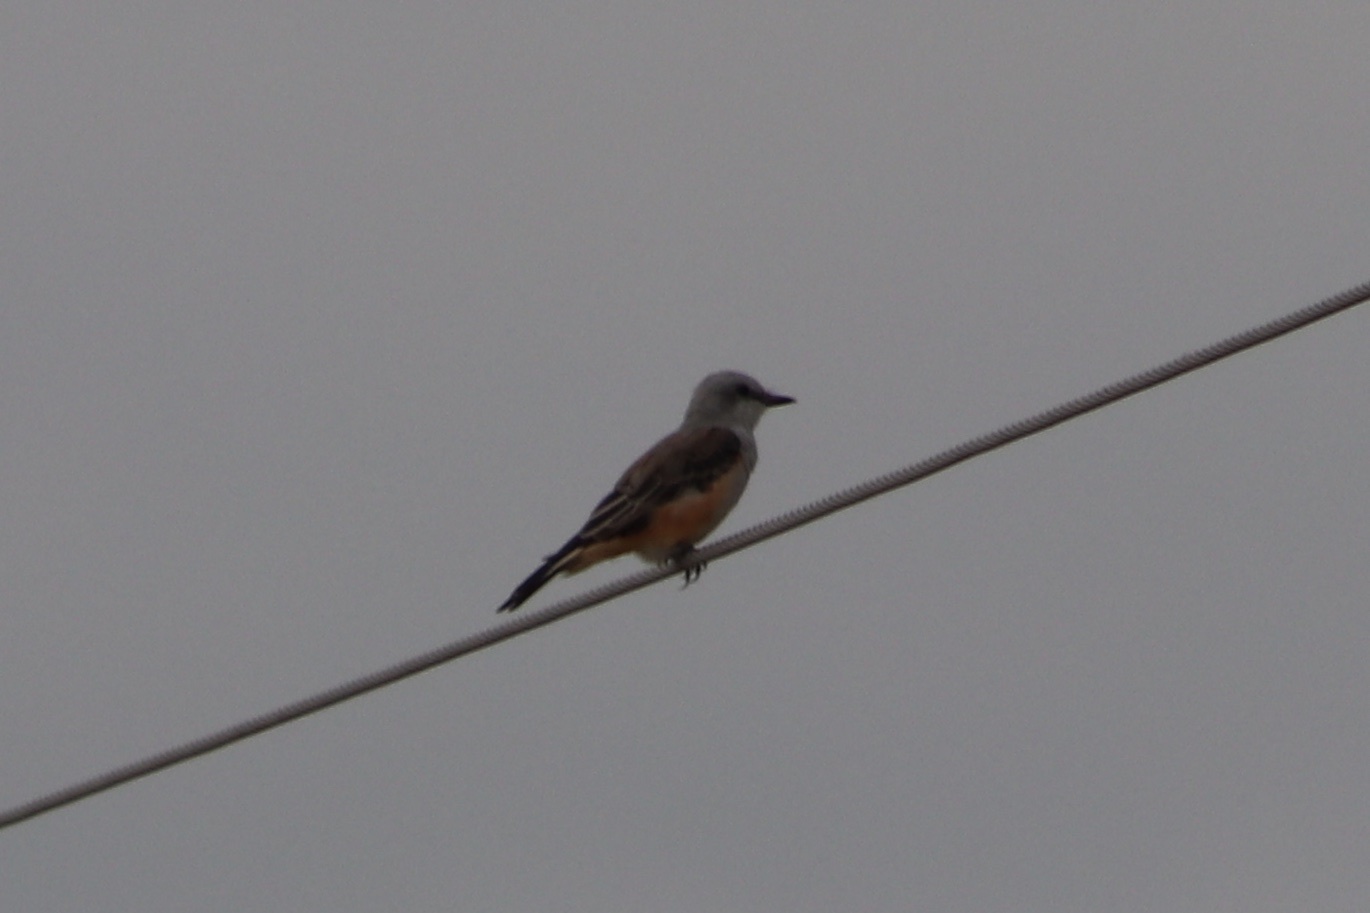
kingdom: Animalia
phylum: Chordata
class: Aves
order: Passeriformes
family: Tyrannidae
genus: Tyrannus
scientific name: Tyrannus forficatus
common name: Scissor-tailed flycatcher
